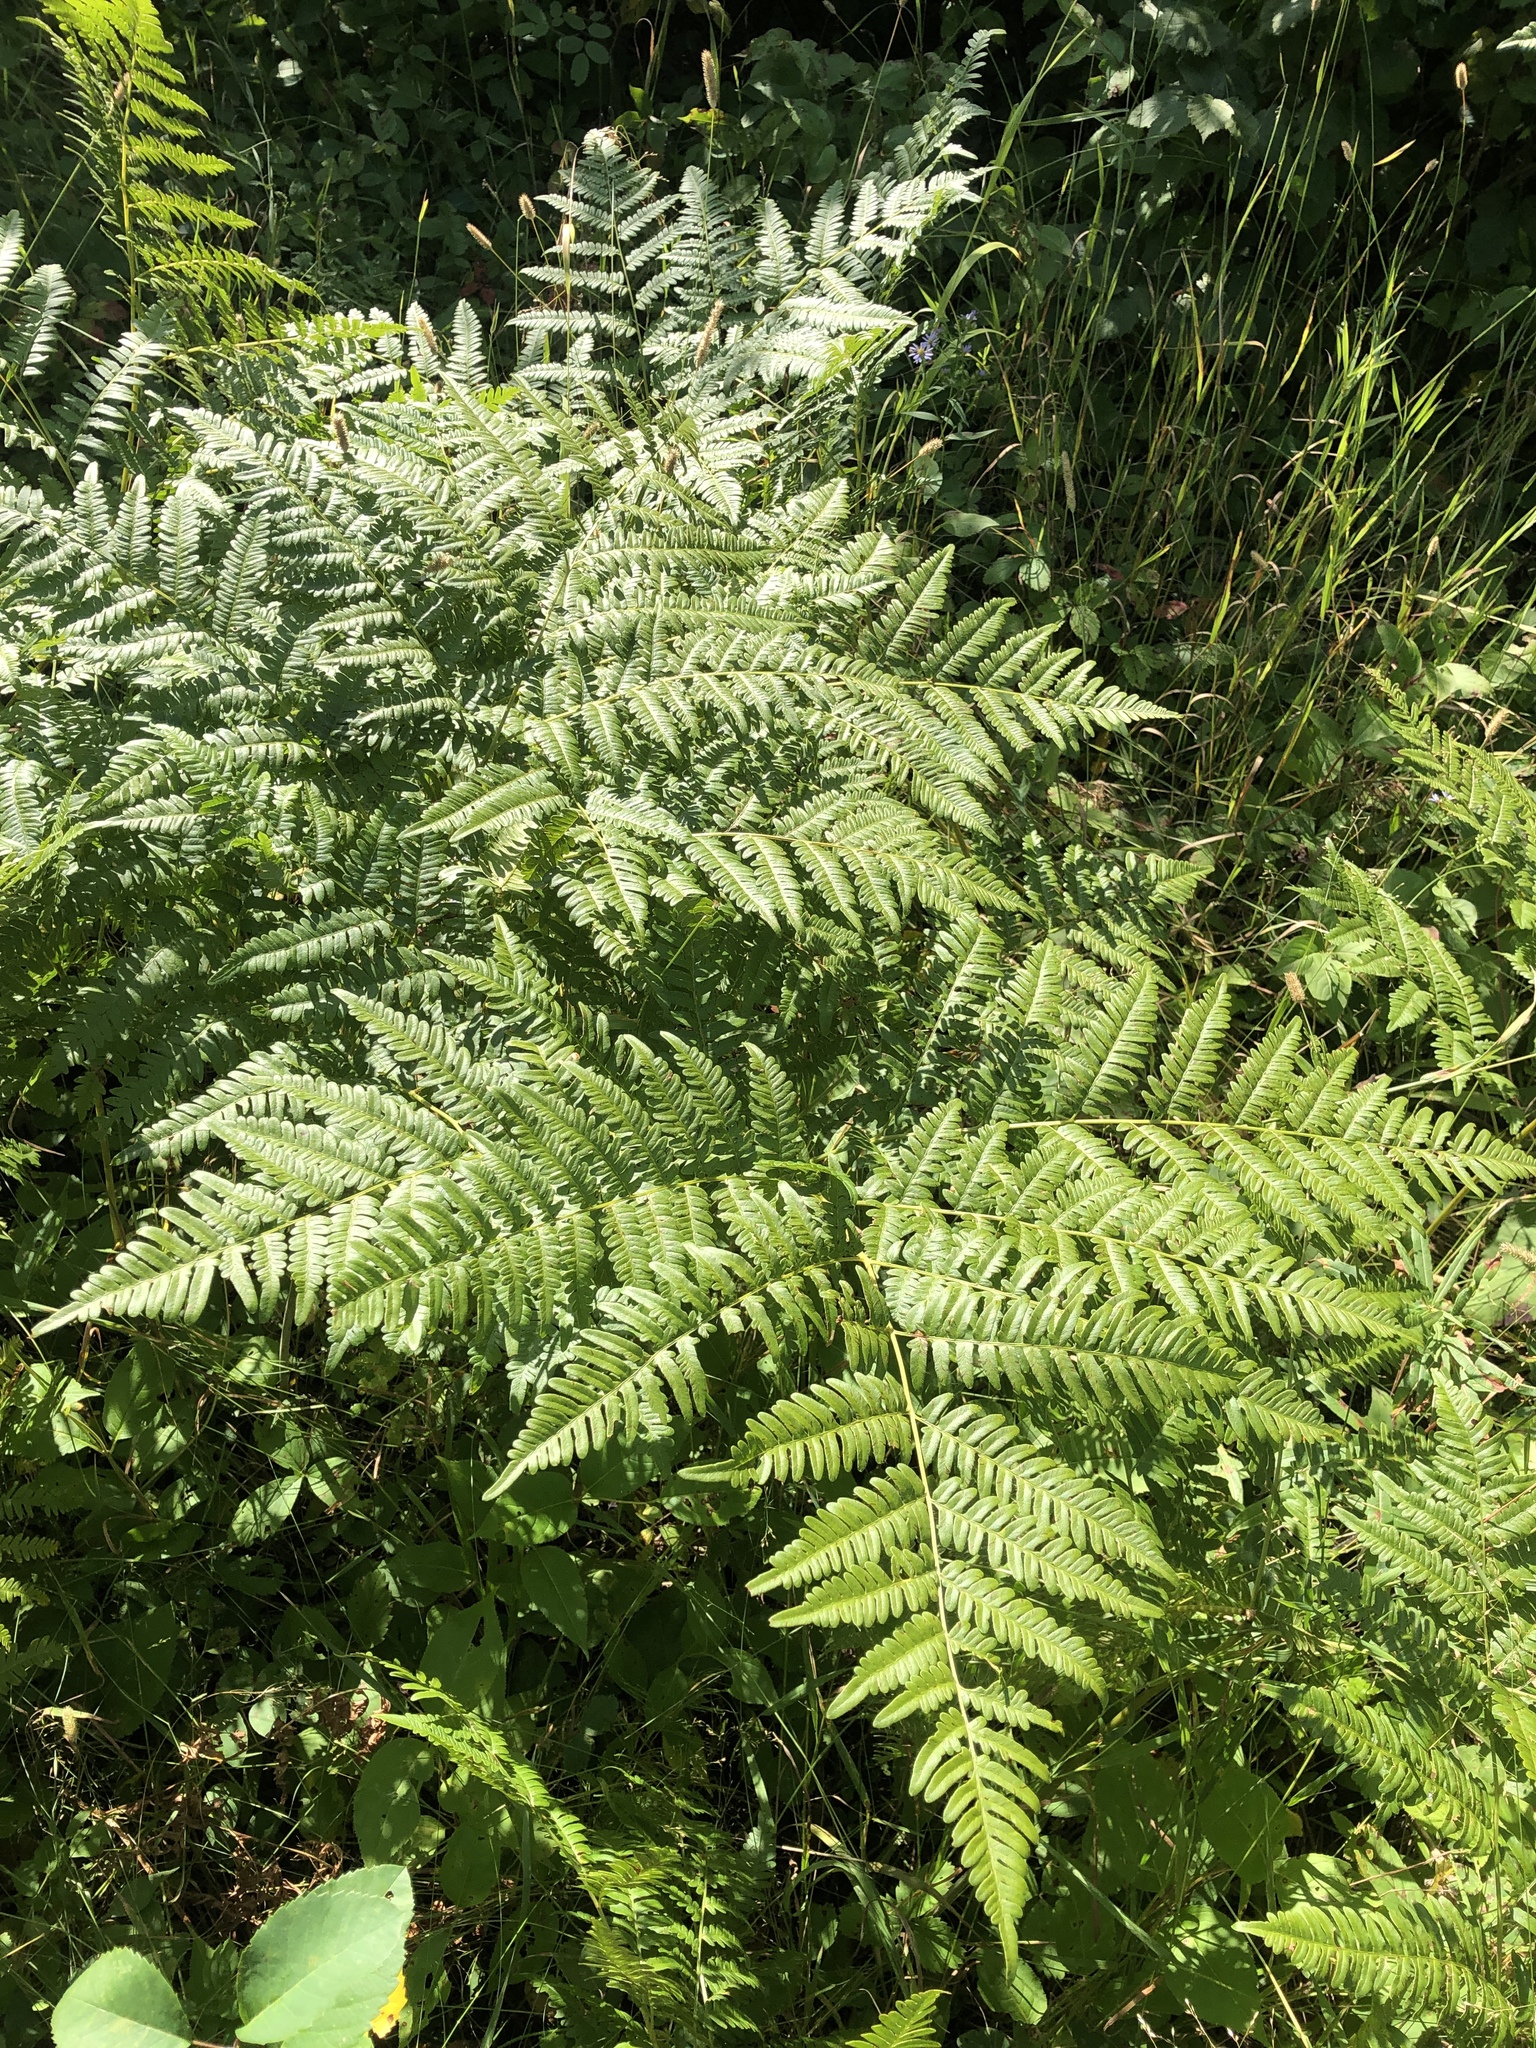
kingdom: Plantae
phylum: Tracheophyta
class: Polypodiopsida
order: Polypodiales
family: Dennstaedtiaceae
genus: Pteridium
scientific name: Pteridium aquilinum
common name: Bracken
